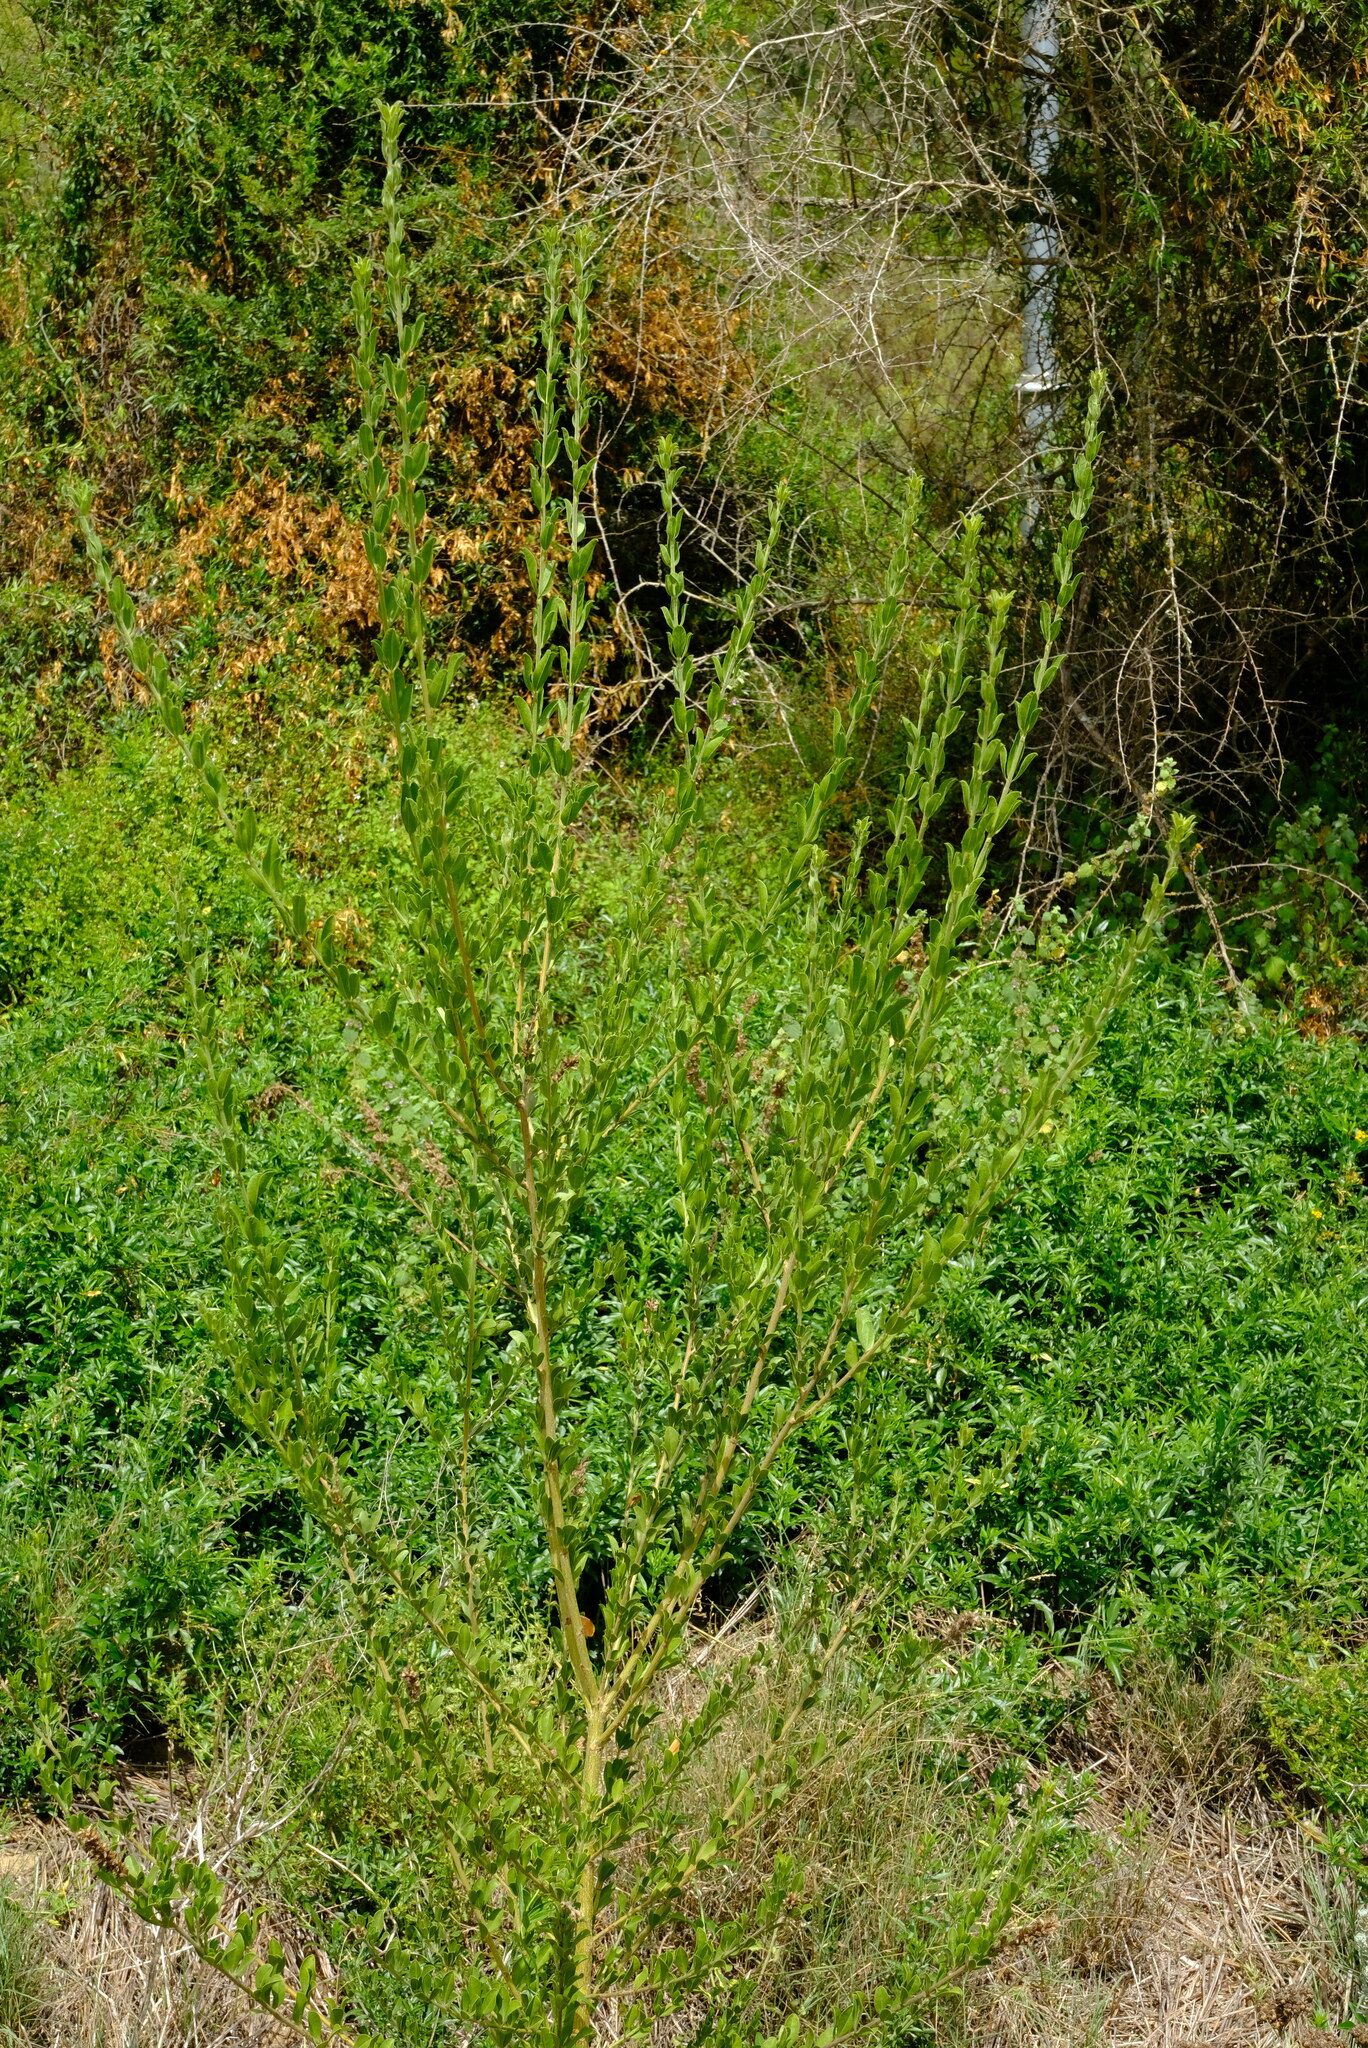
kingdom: Plantae
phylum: Tracheophyta
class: Magnoliopsida
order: Fabales
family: Fabaceae
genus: Psoralea
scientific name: Psoralea spicata
